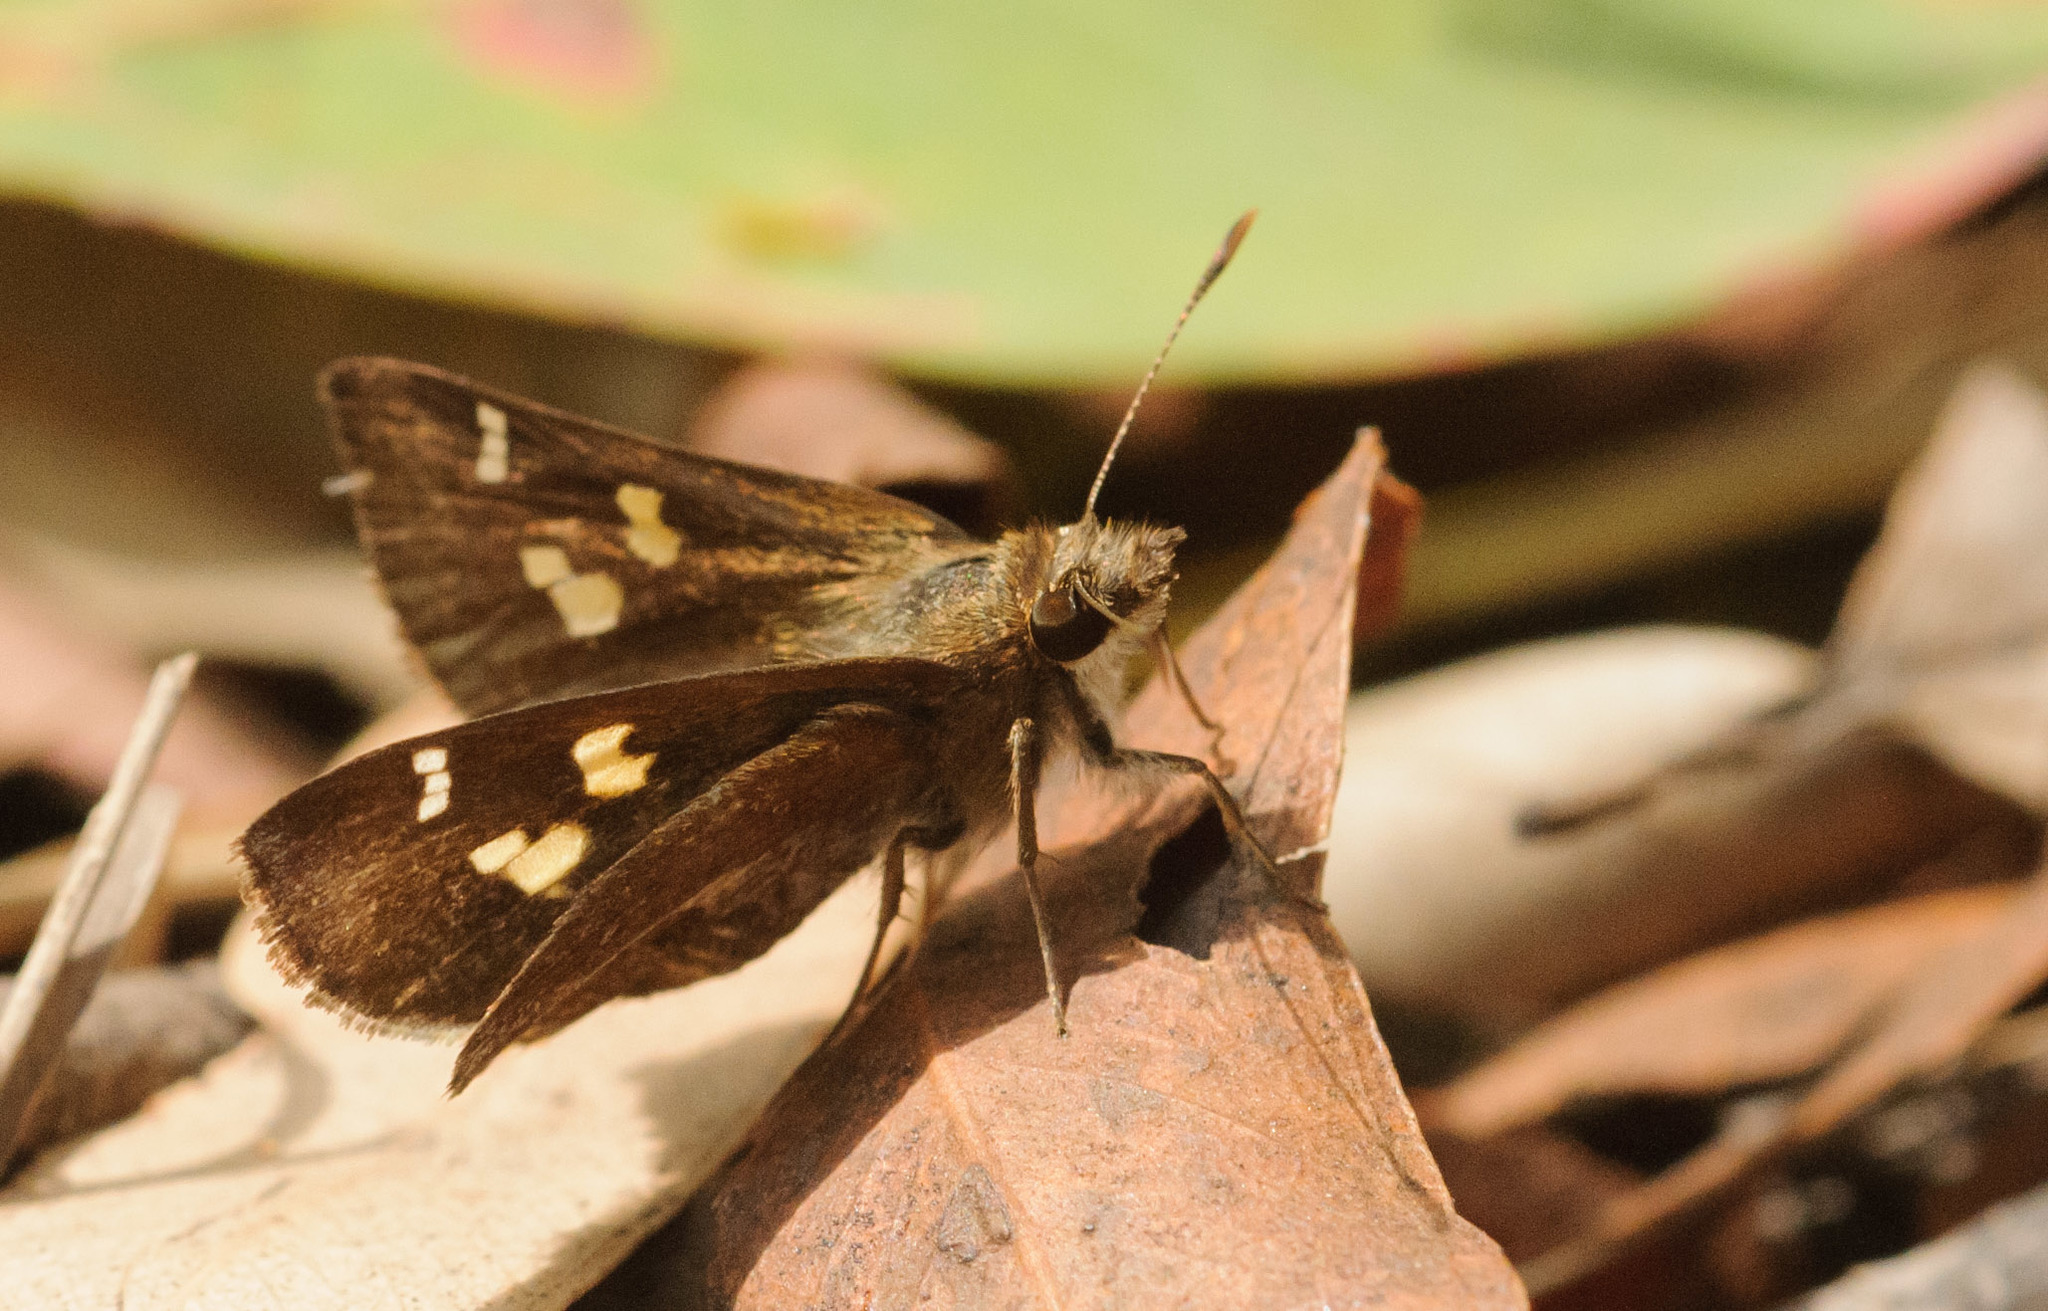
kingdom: Animalia
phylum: Arthropoda
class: Insecta
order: Lepidoptera
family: Hesperiidae
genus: Toxidia
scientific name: Toxidia doubledayi
